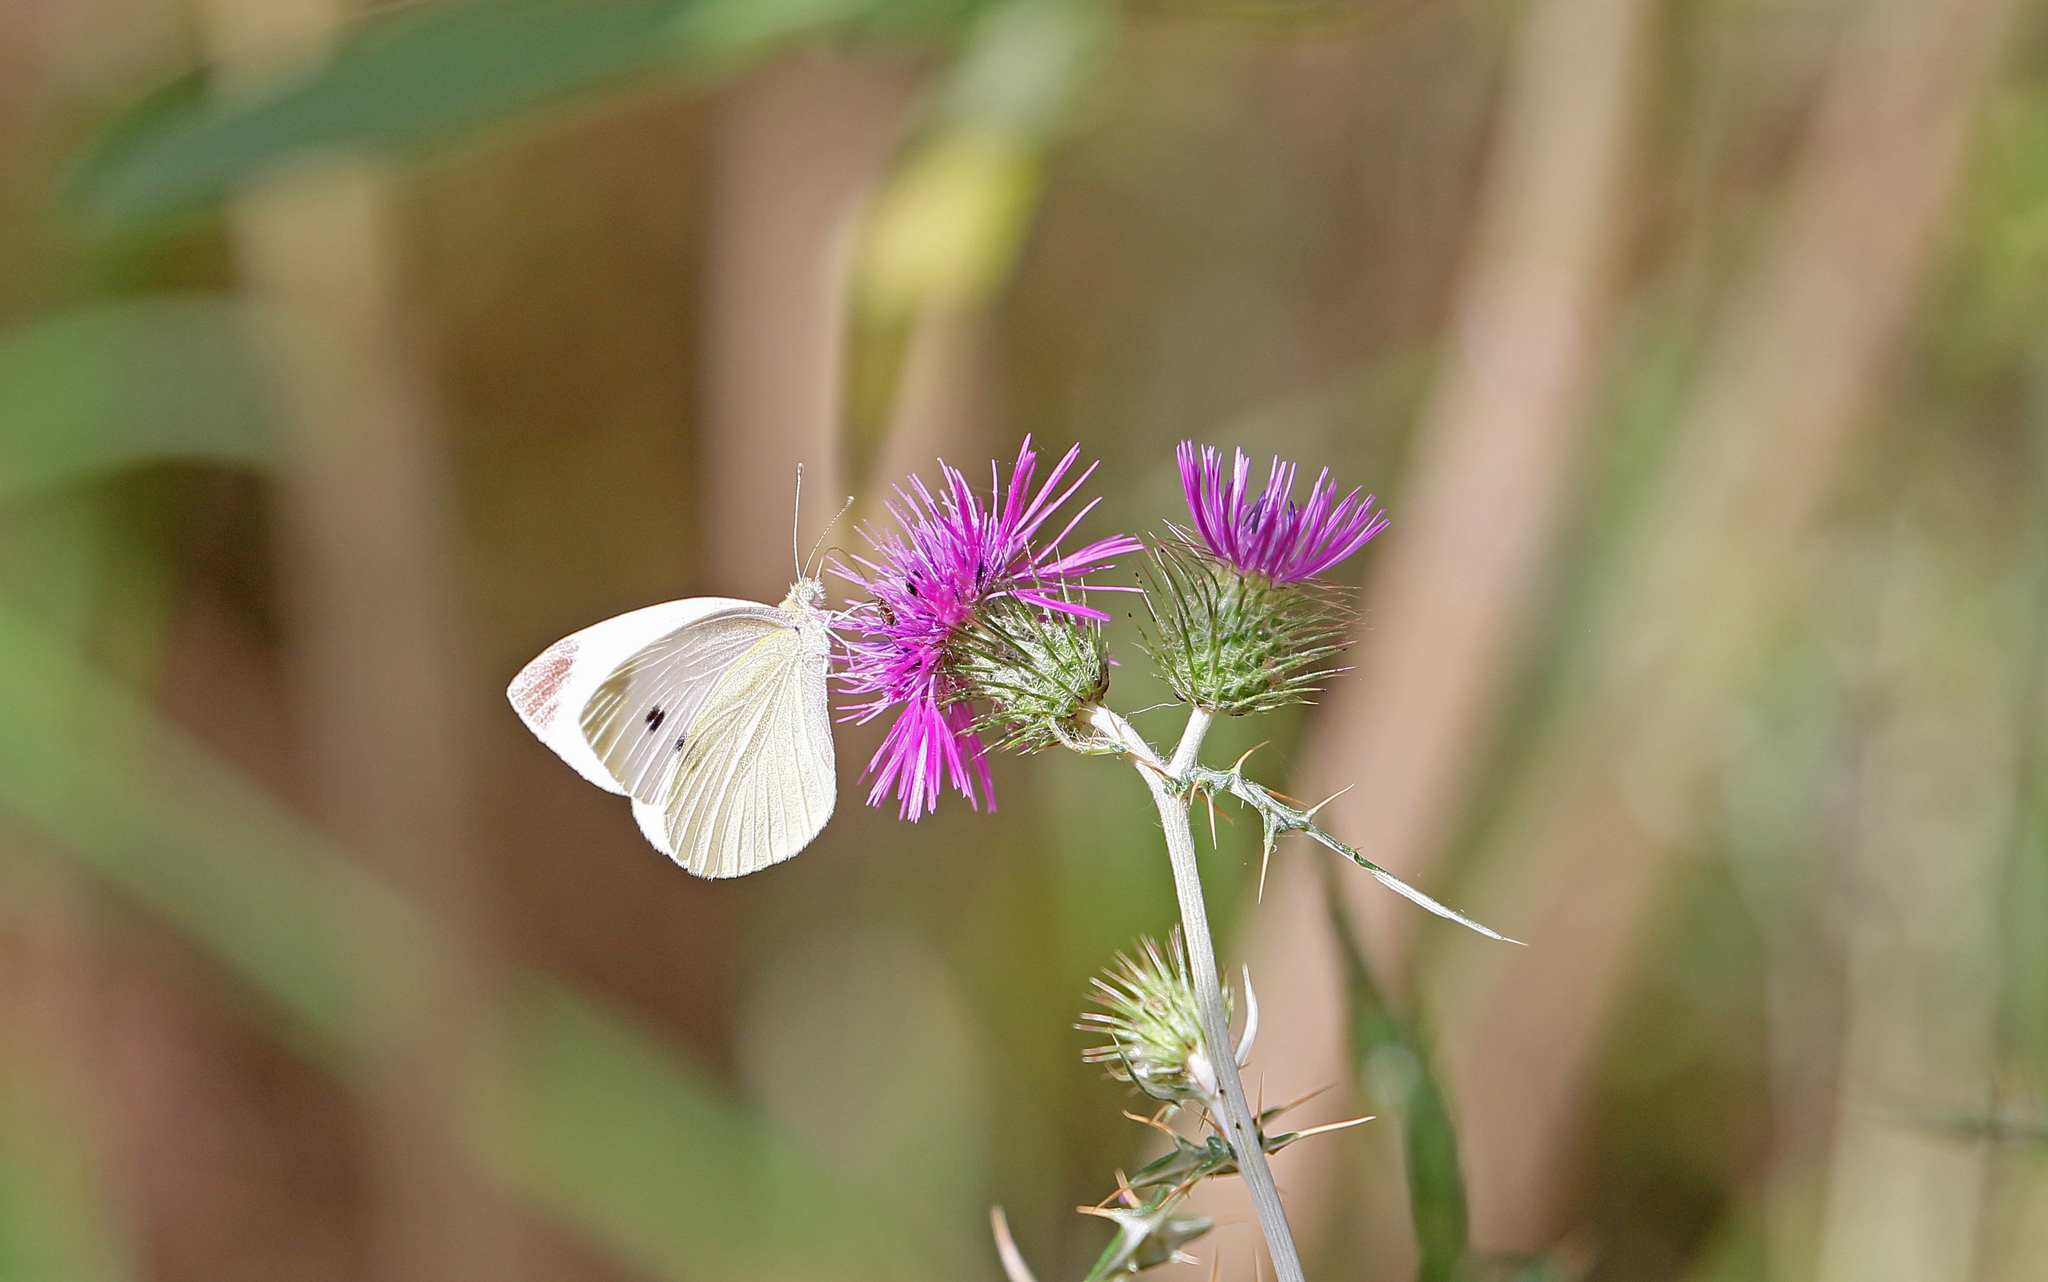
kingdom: Animalia
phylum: Arthropoda
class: Insecta
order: Lepidoptera
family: Pieridae
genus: Pieris
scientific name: Pieris rapae
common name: Small white
